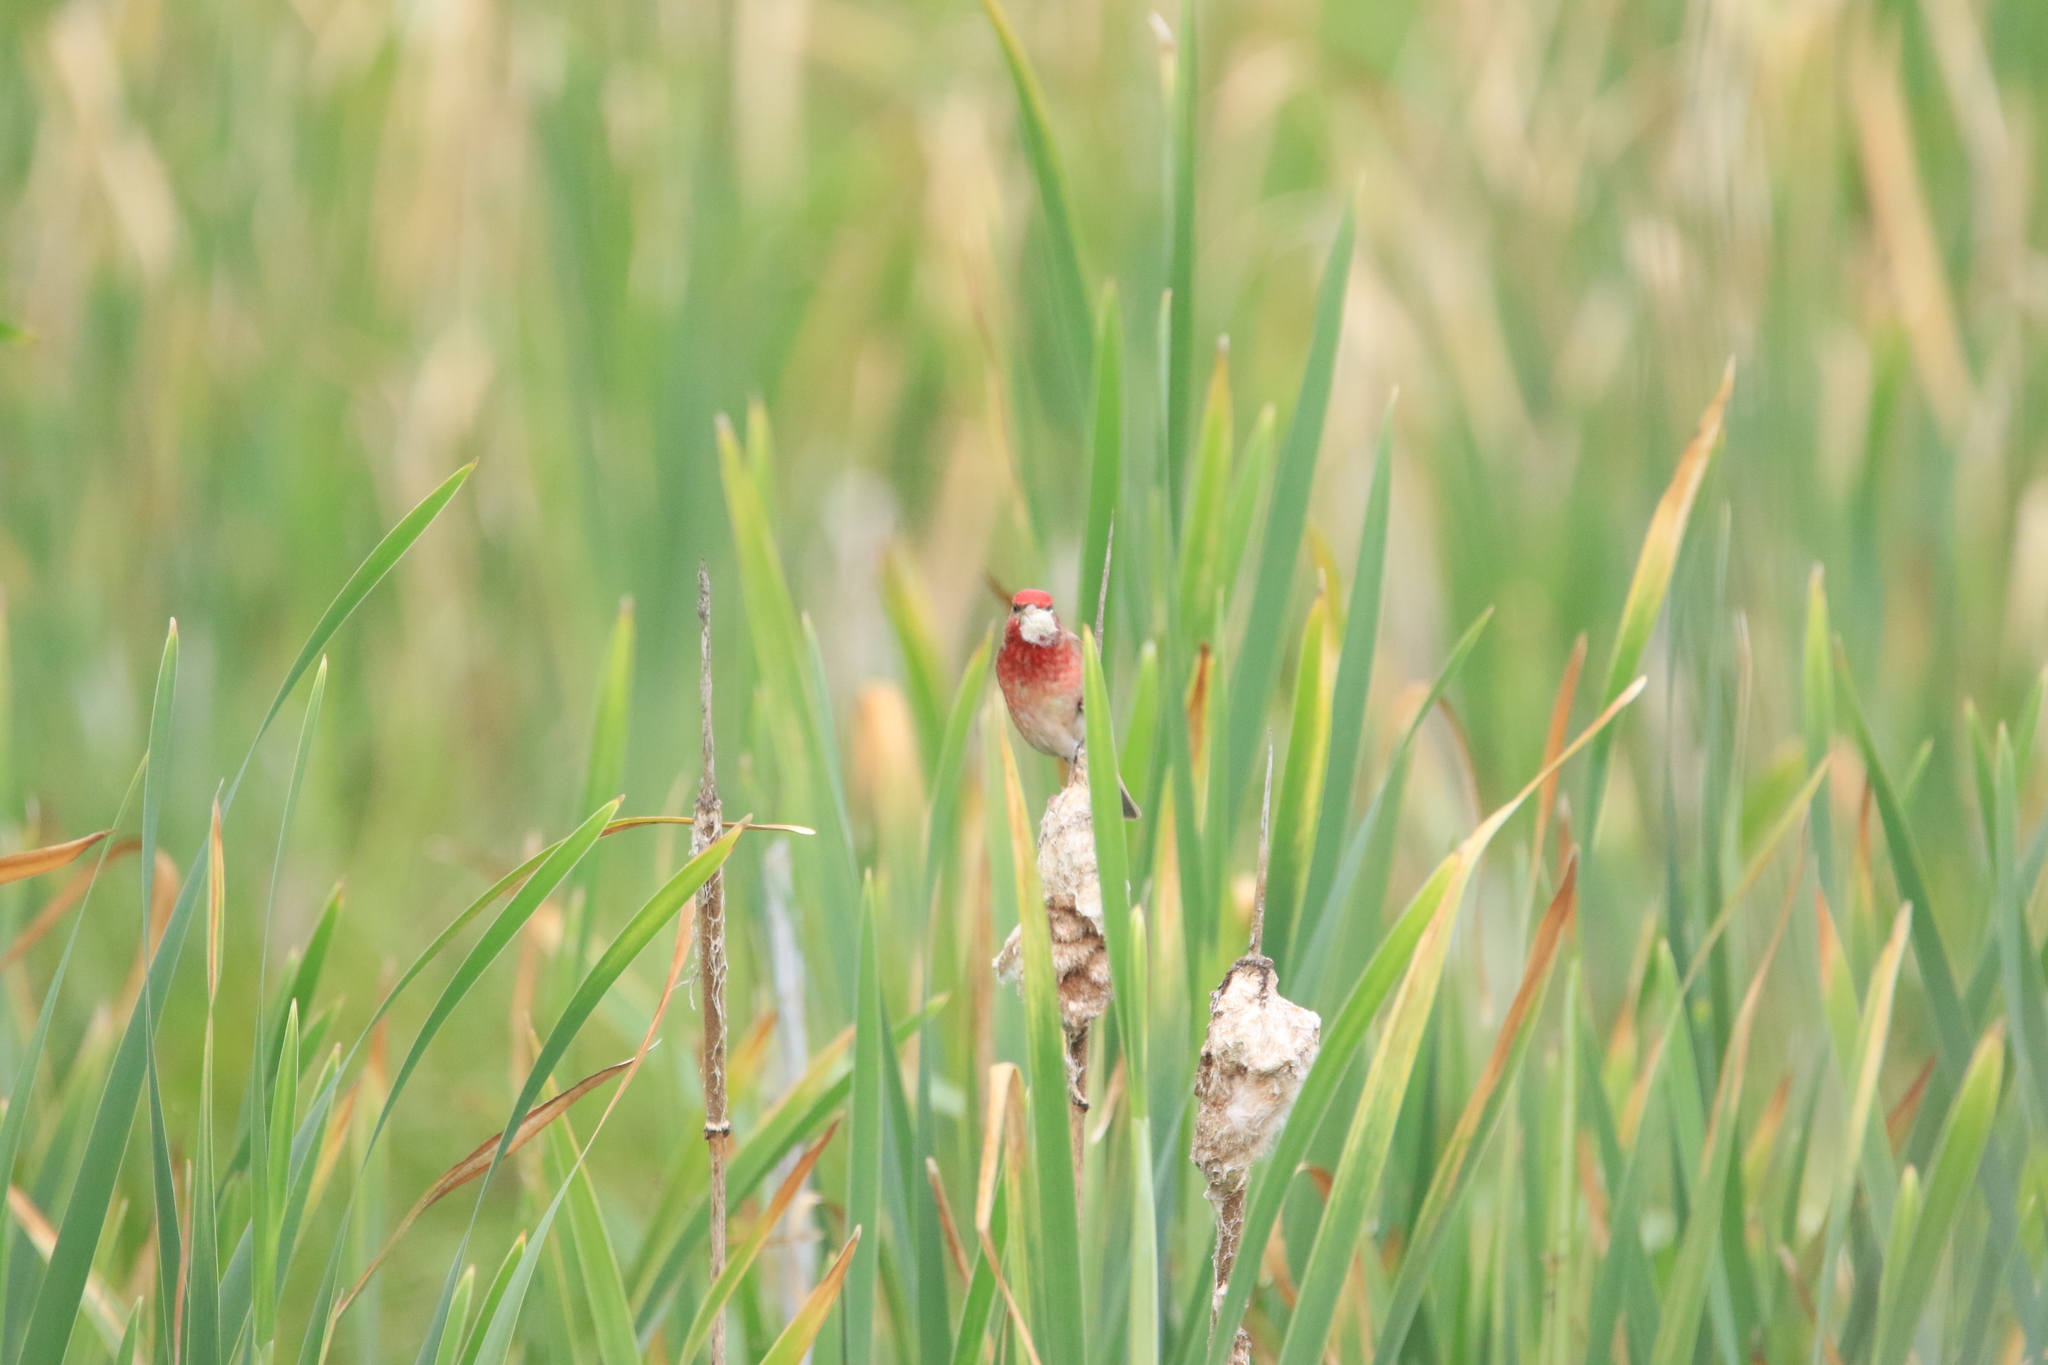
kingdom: Animalia
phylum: Chordata
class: Aves
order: Passeriformes
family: Fringillidae
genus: Carpodacus
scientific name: Carpodacus erythrinus
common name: Common rosefinch
